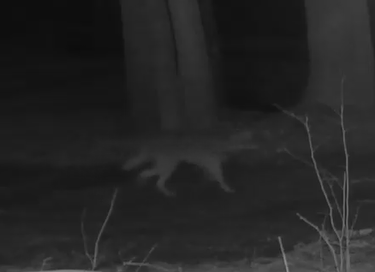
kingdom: Animalia
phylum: Chordata
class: Mammalia
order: Carnivora
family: Canidae
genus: Canis
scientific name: Canis latrans
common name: Coyote
